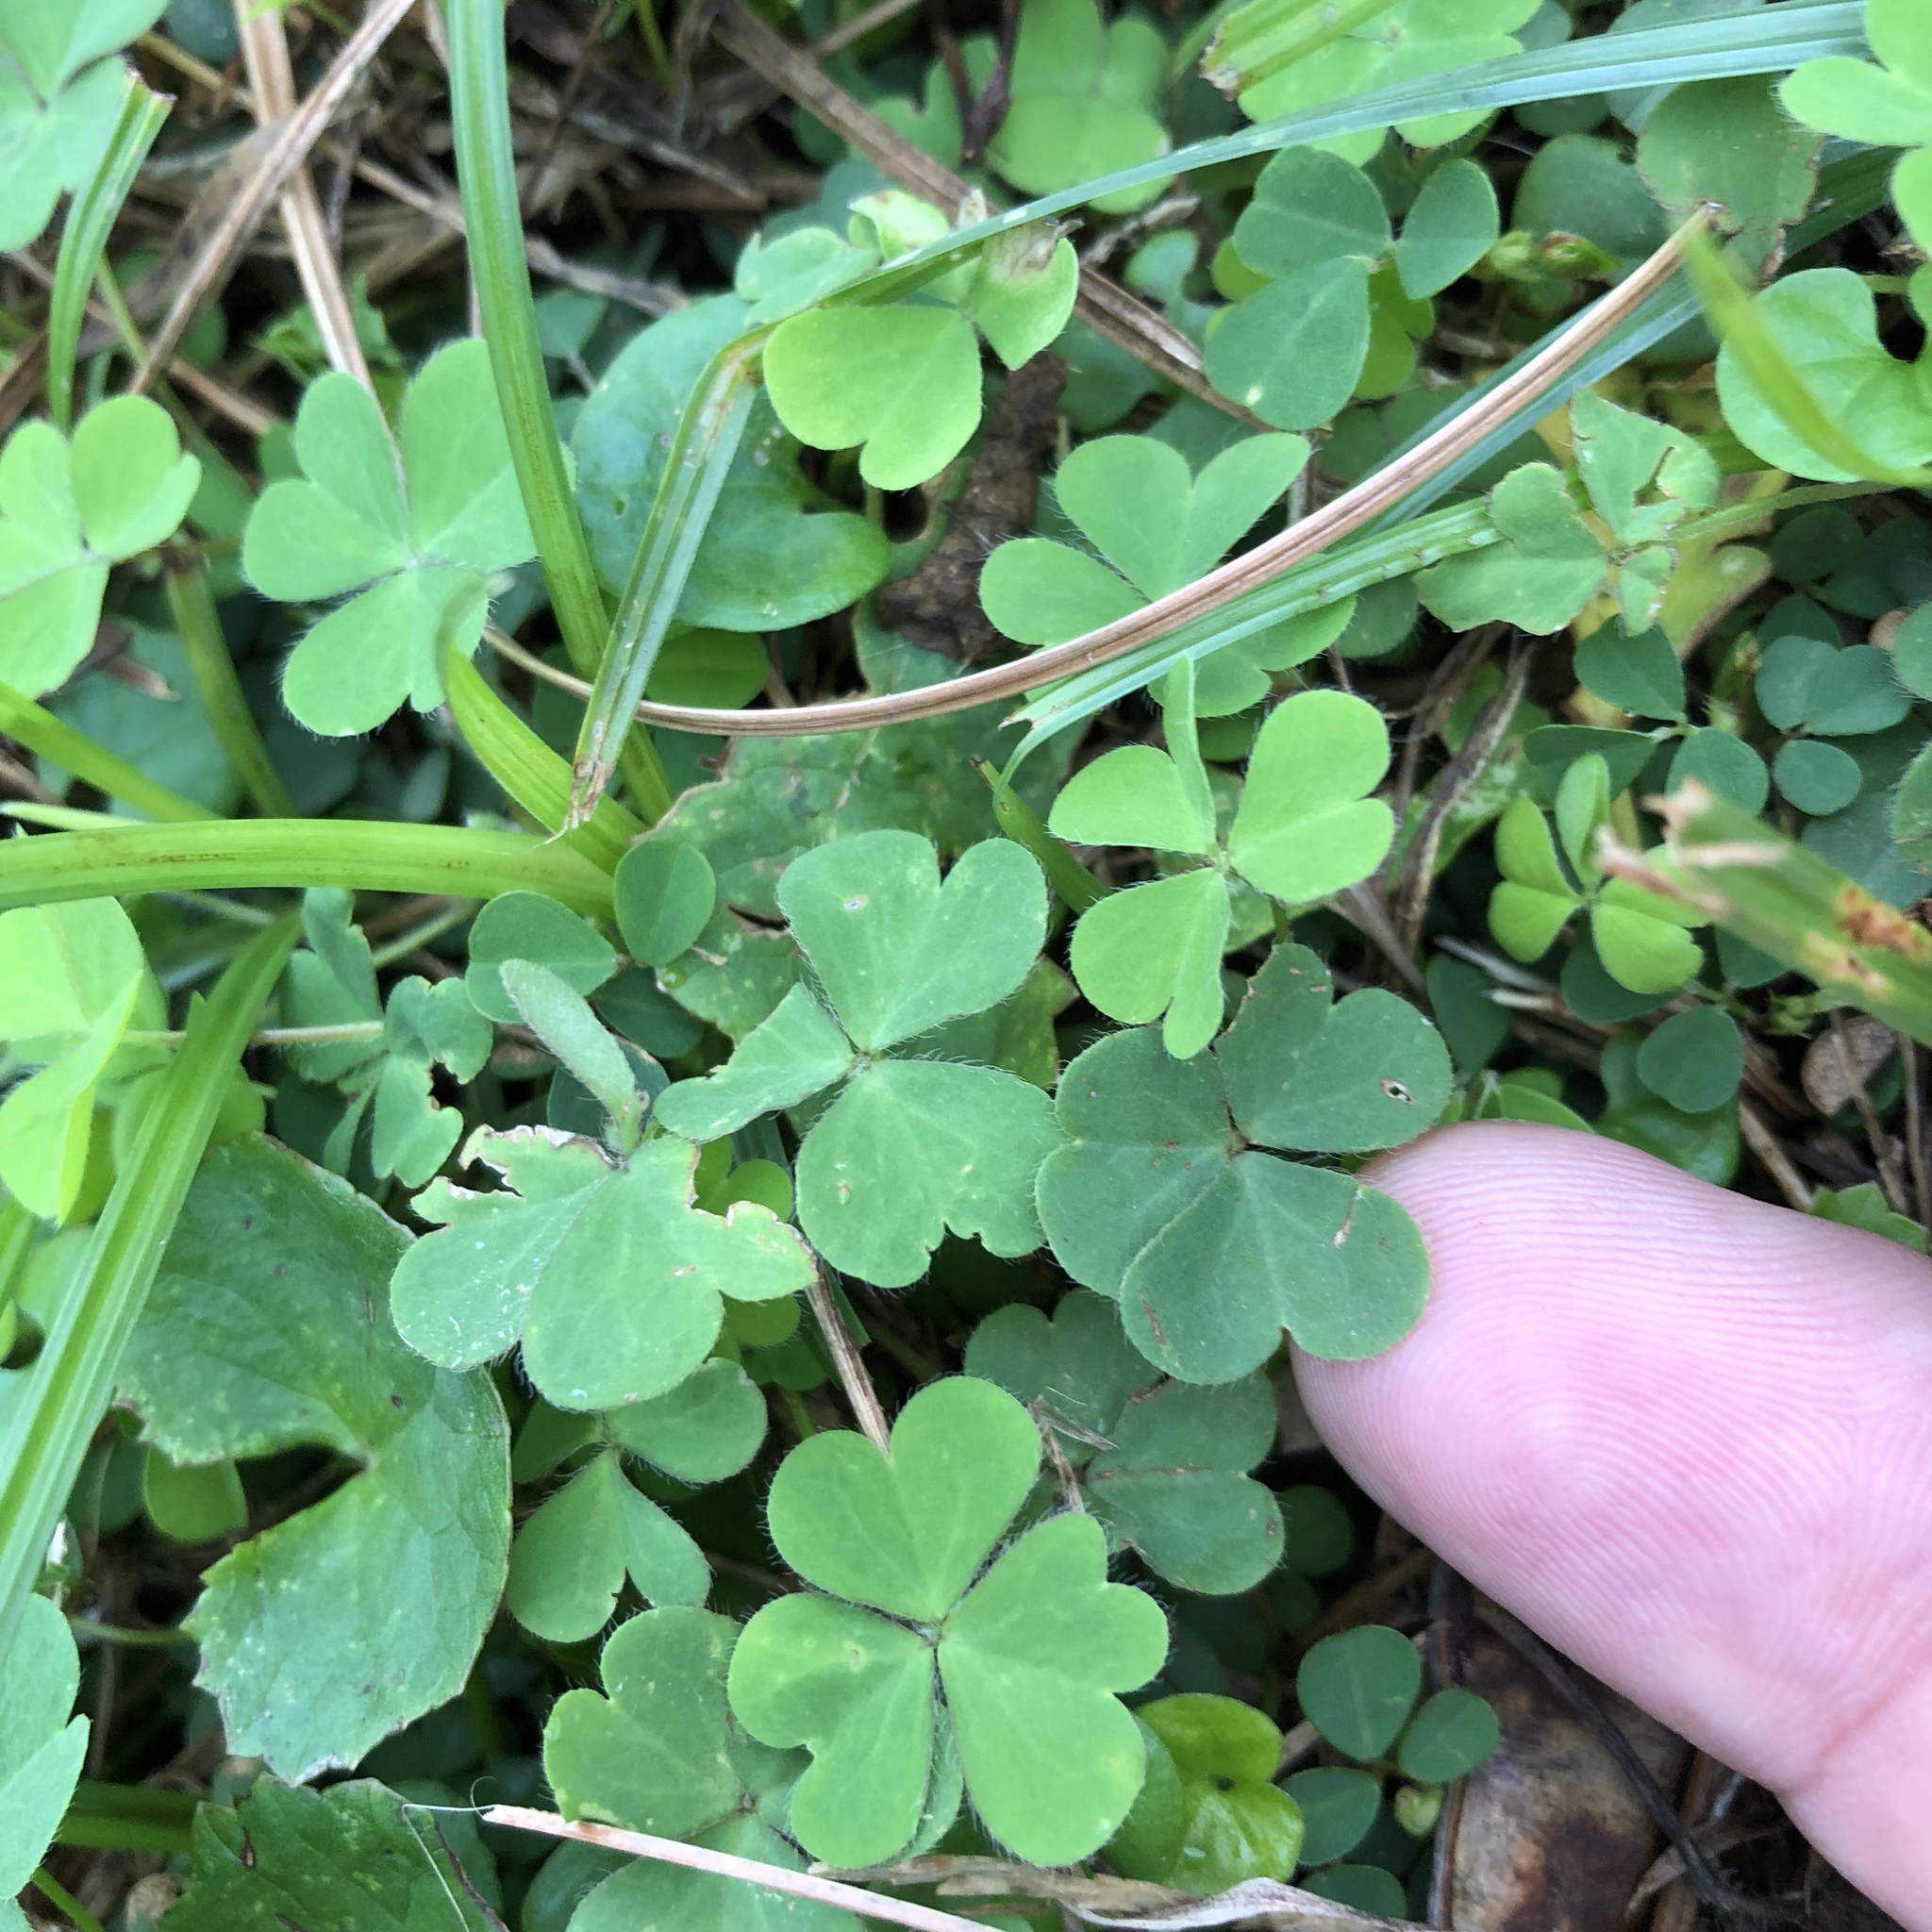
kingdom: Plantae
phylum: Tracheophyta
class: Magnoliopsida
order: Oxalidales
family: Oxalidaceae
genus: Oxalis
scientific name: Oxalis corniculata
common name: Procumbent yellow-sorrel
